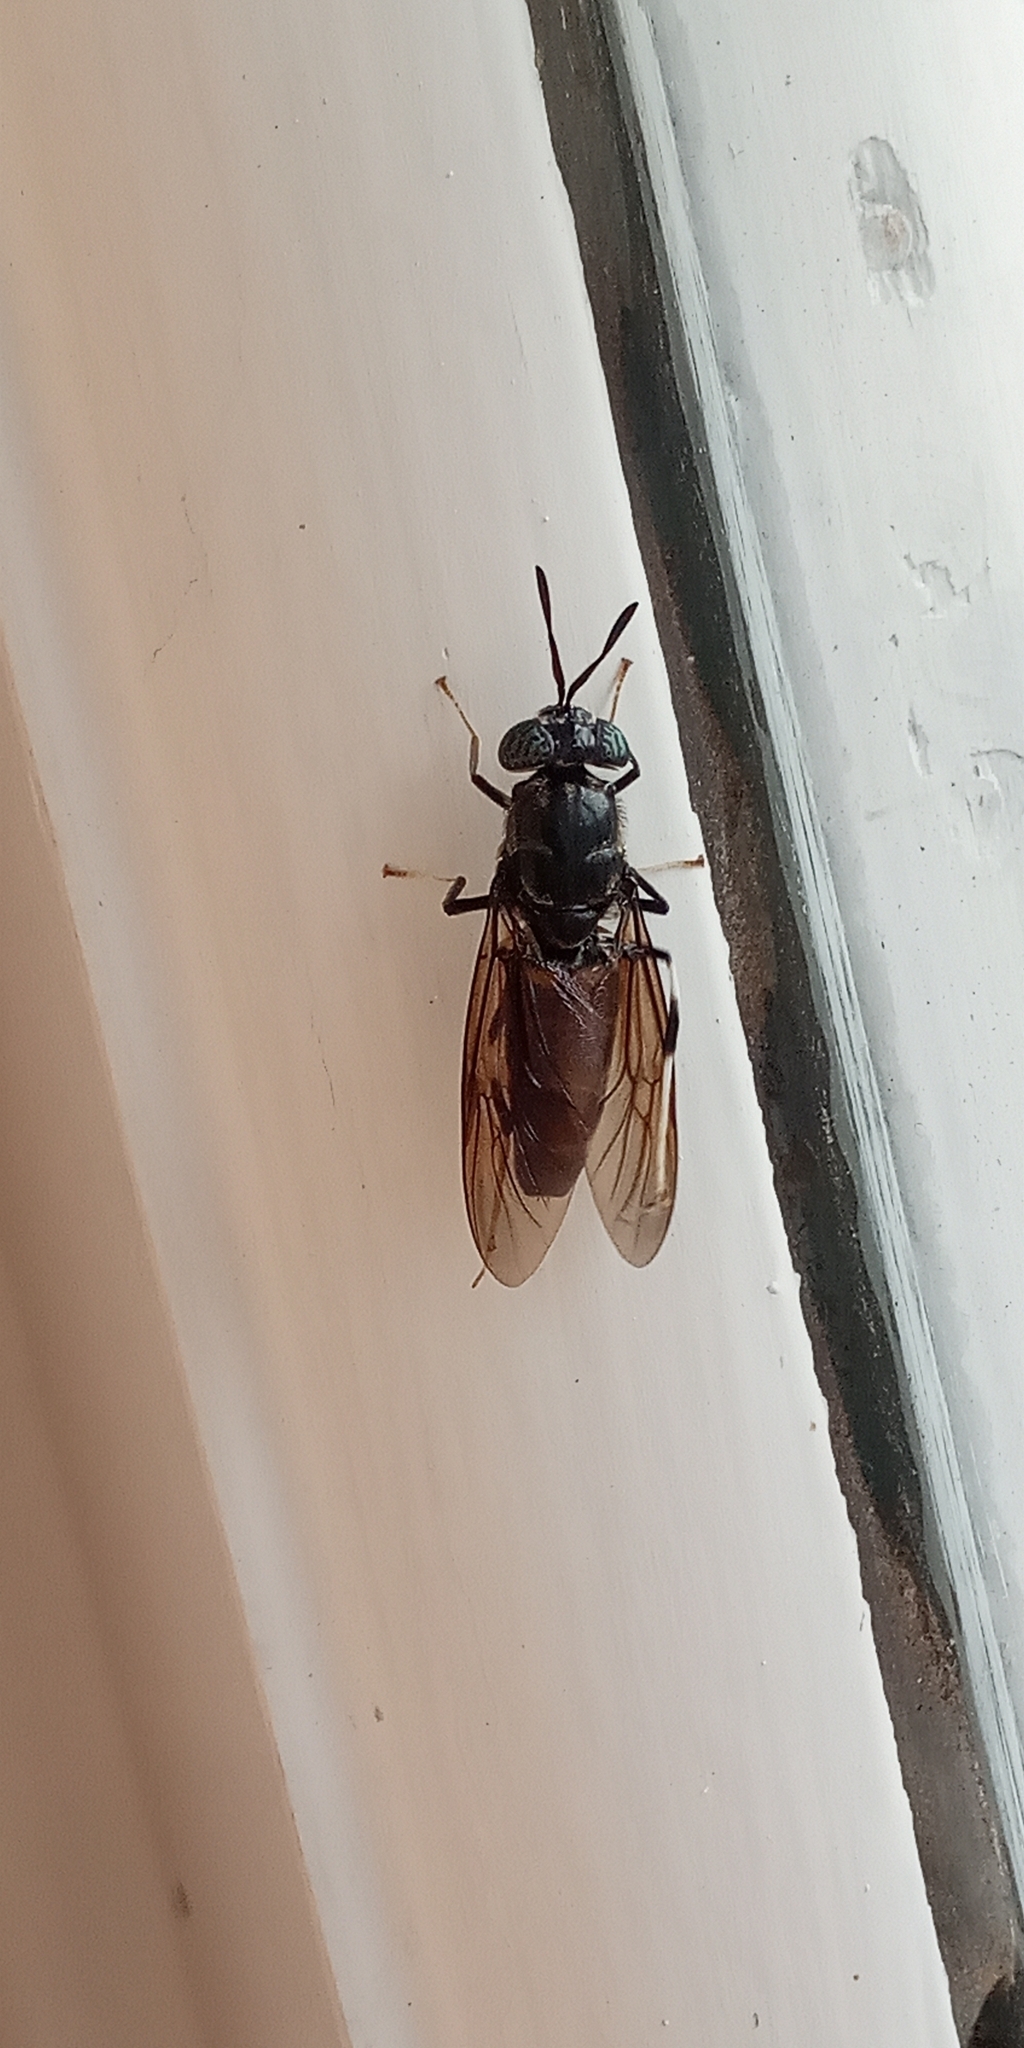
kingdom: Animalia
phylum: Arthropoda
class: Insecta
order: Diptera
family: Stratiomyidae
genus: Hermetia
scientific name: Hermetia illucens
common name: Black soldier fly
